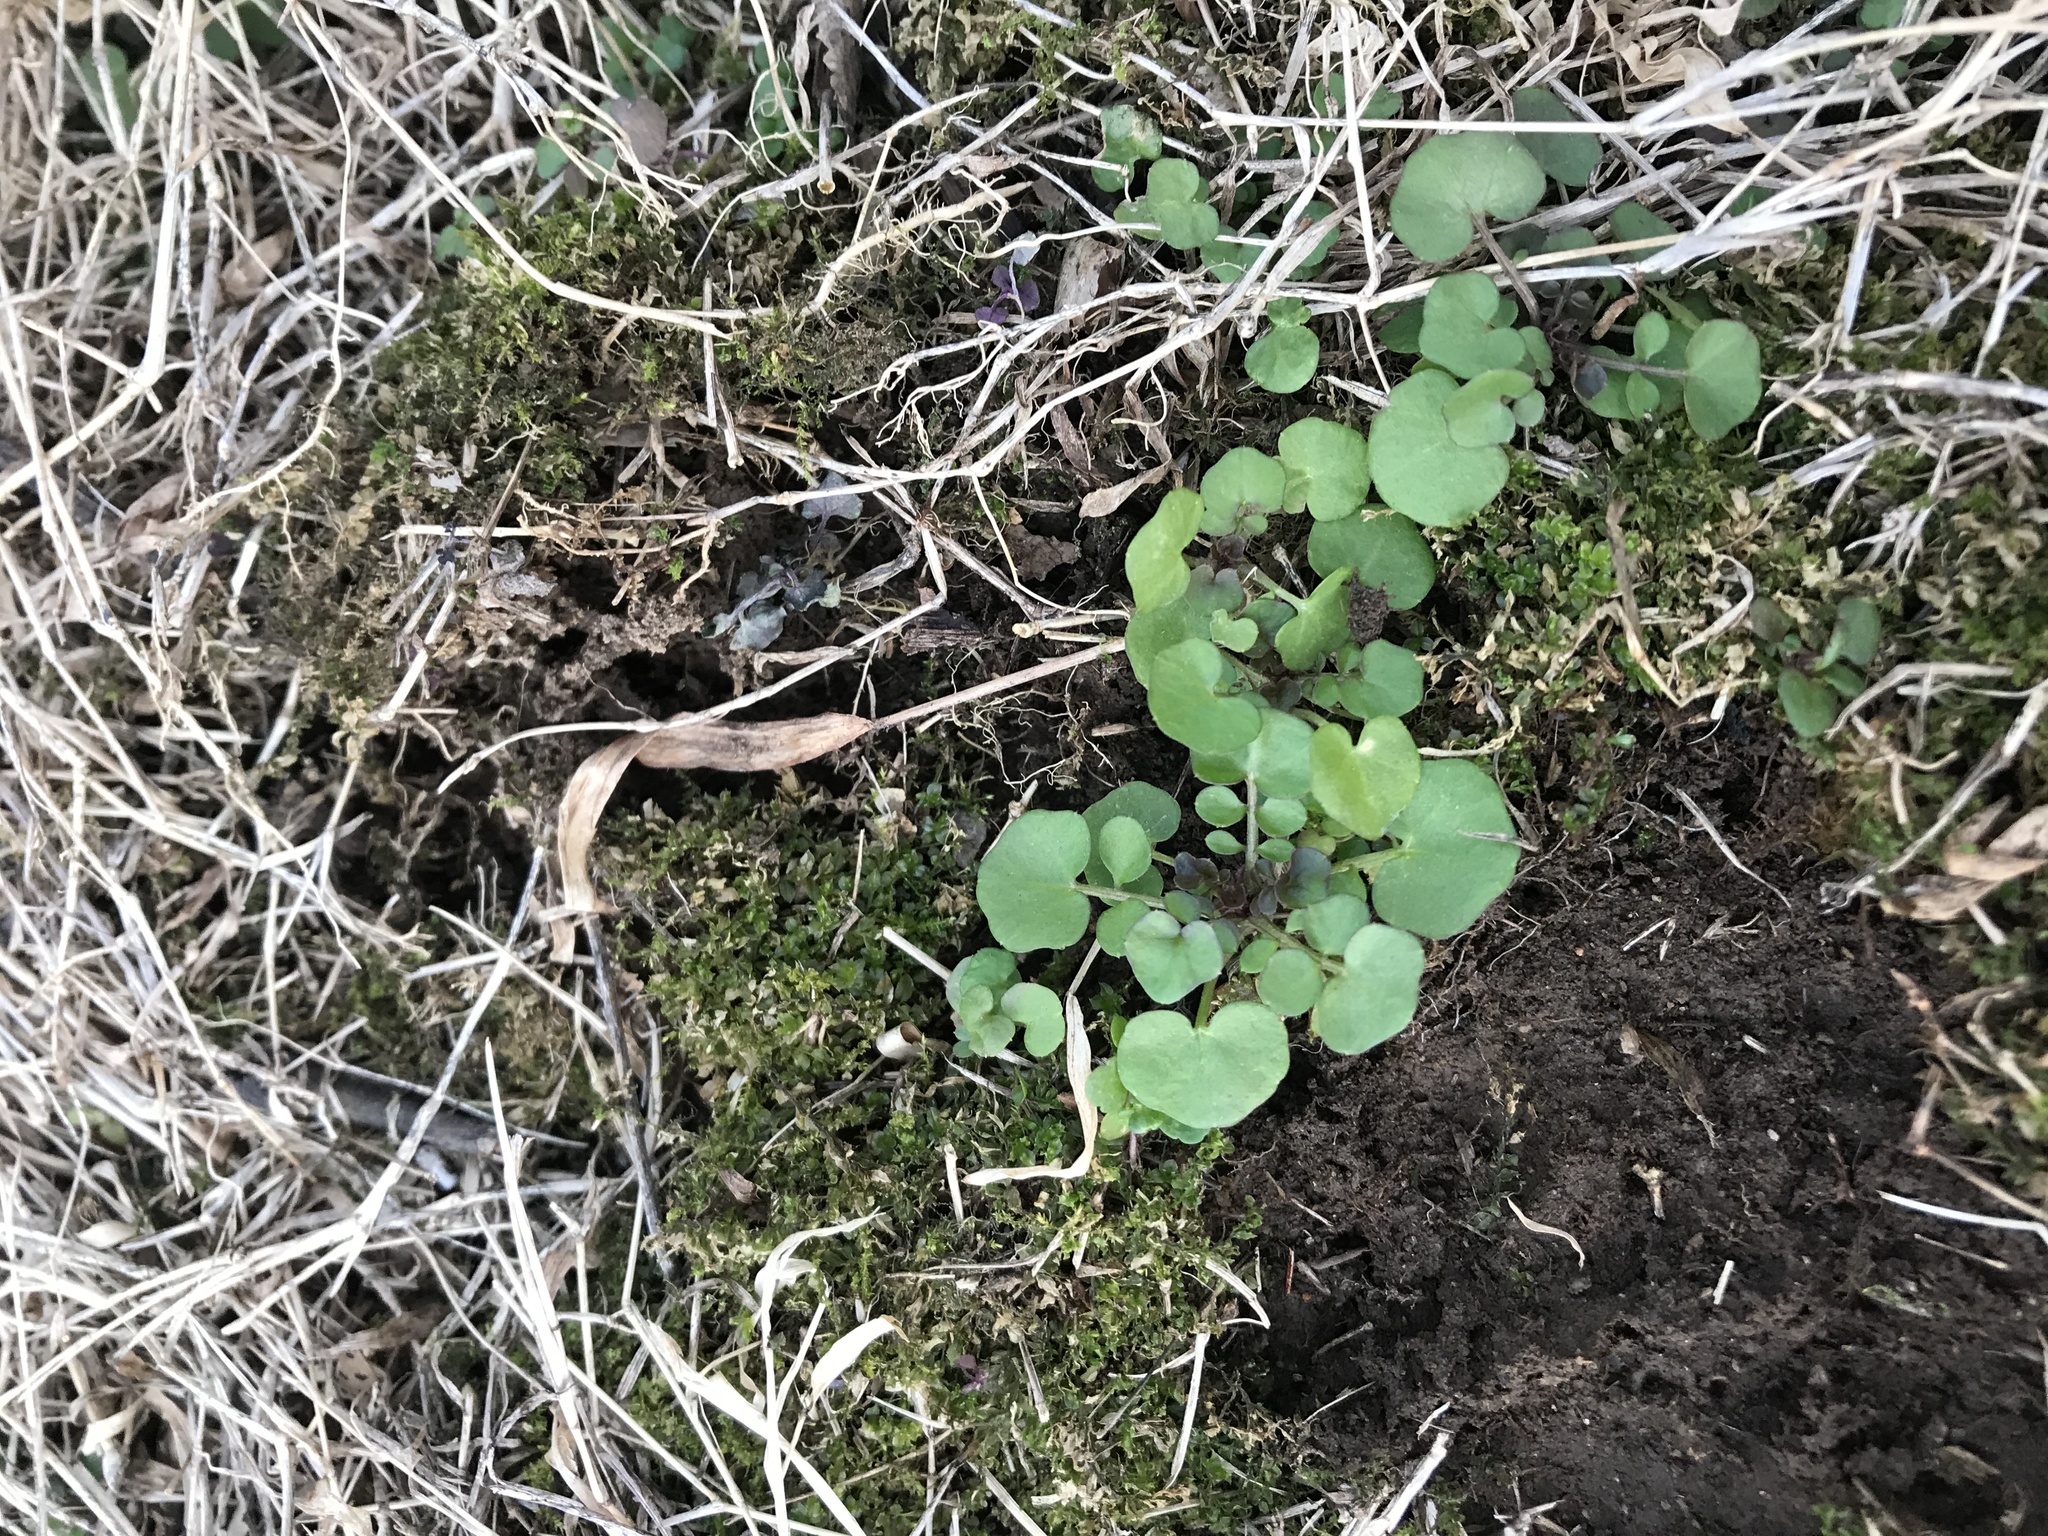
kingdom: Plantae
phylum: Tracheophyta
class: Magnoliopsida
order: Brassicales
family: Brassicaceae
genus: Cardamine
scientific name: Cardamine hirsuta
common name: Hairy bittercress
